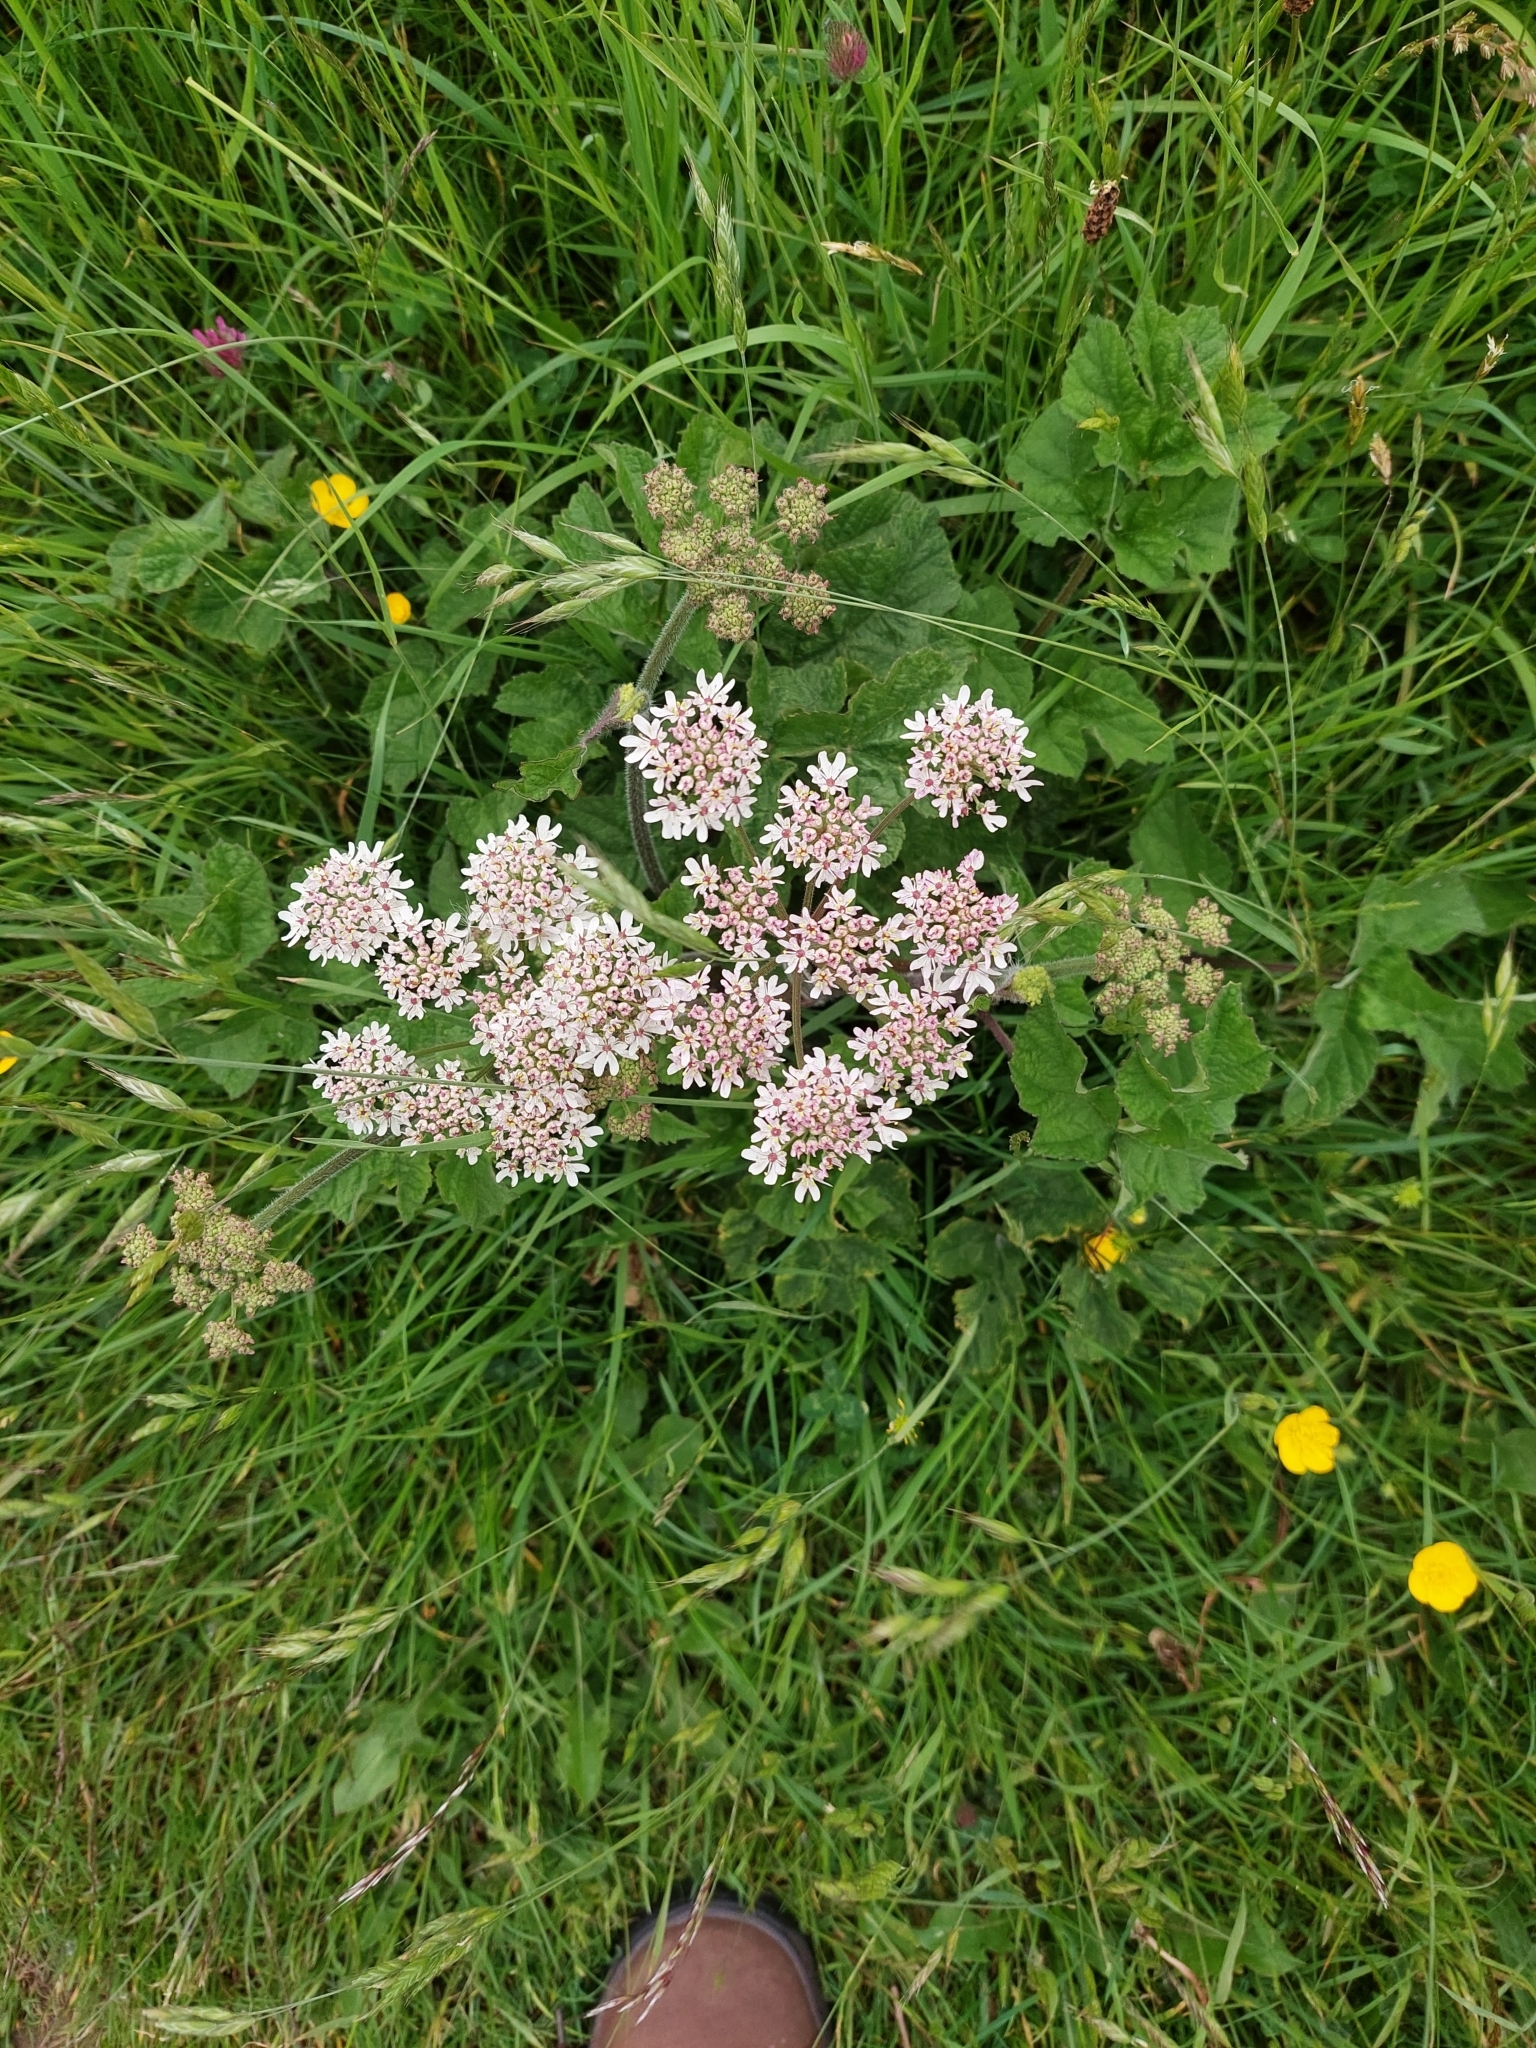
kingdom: Plantae
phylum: Tracheophyta
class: Magnoliopsida
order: Apiales
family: Apiaceae
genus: Heracleum
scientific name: Heracleum sphondylium
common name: Hogweed
